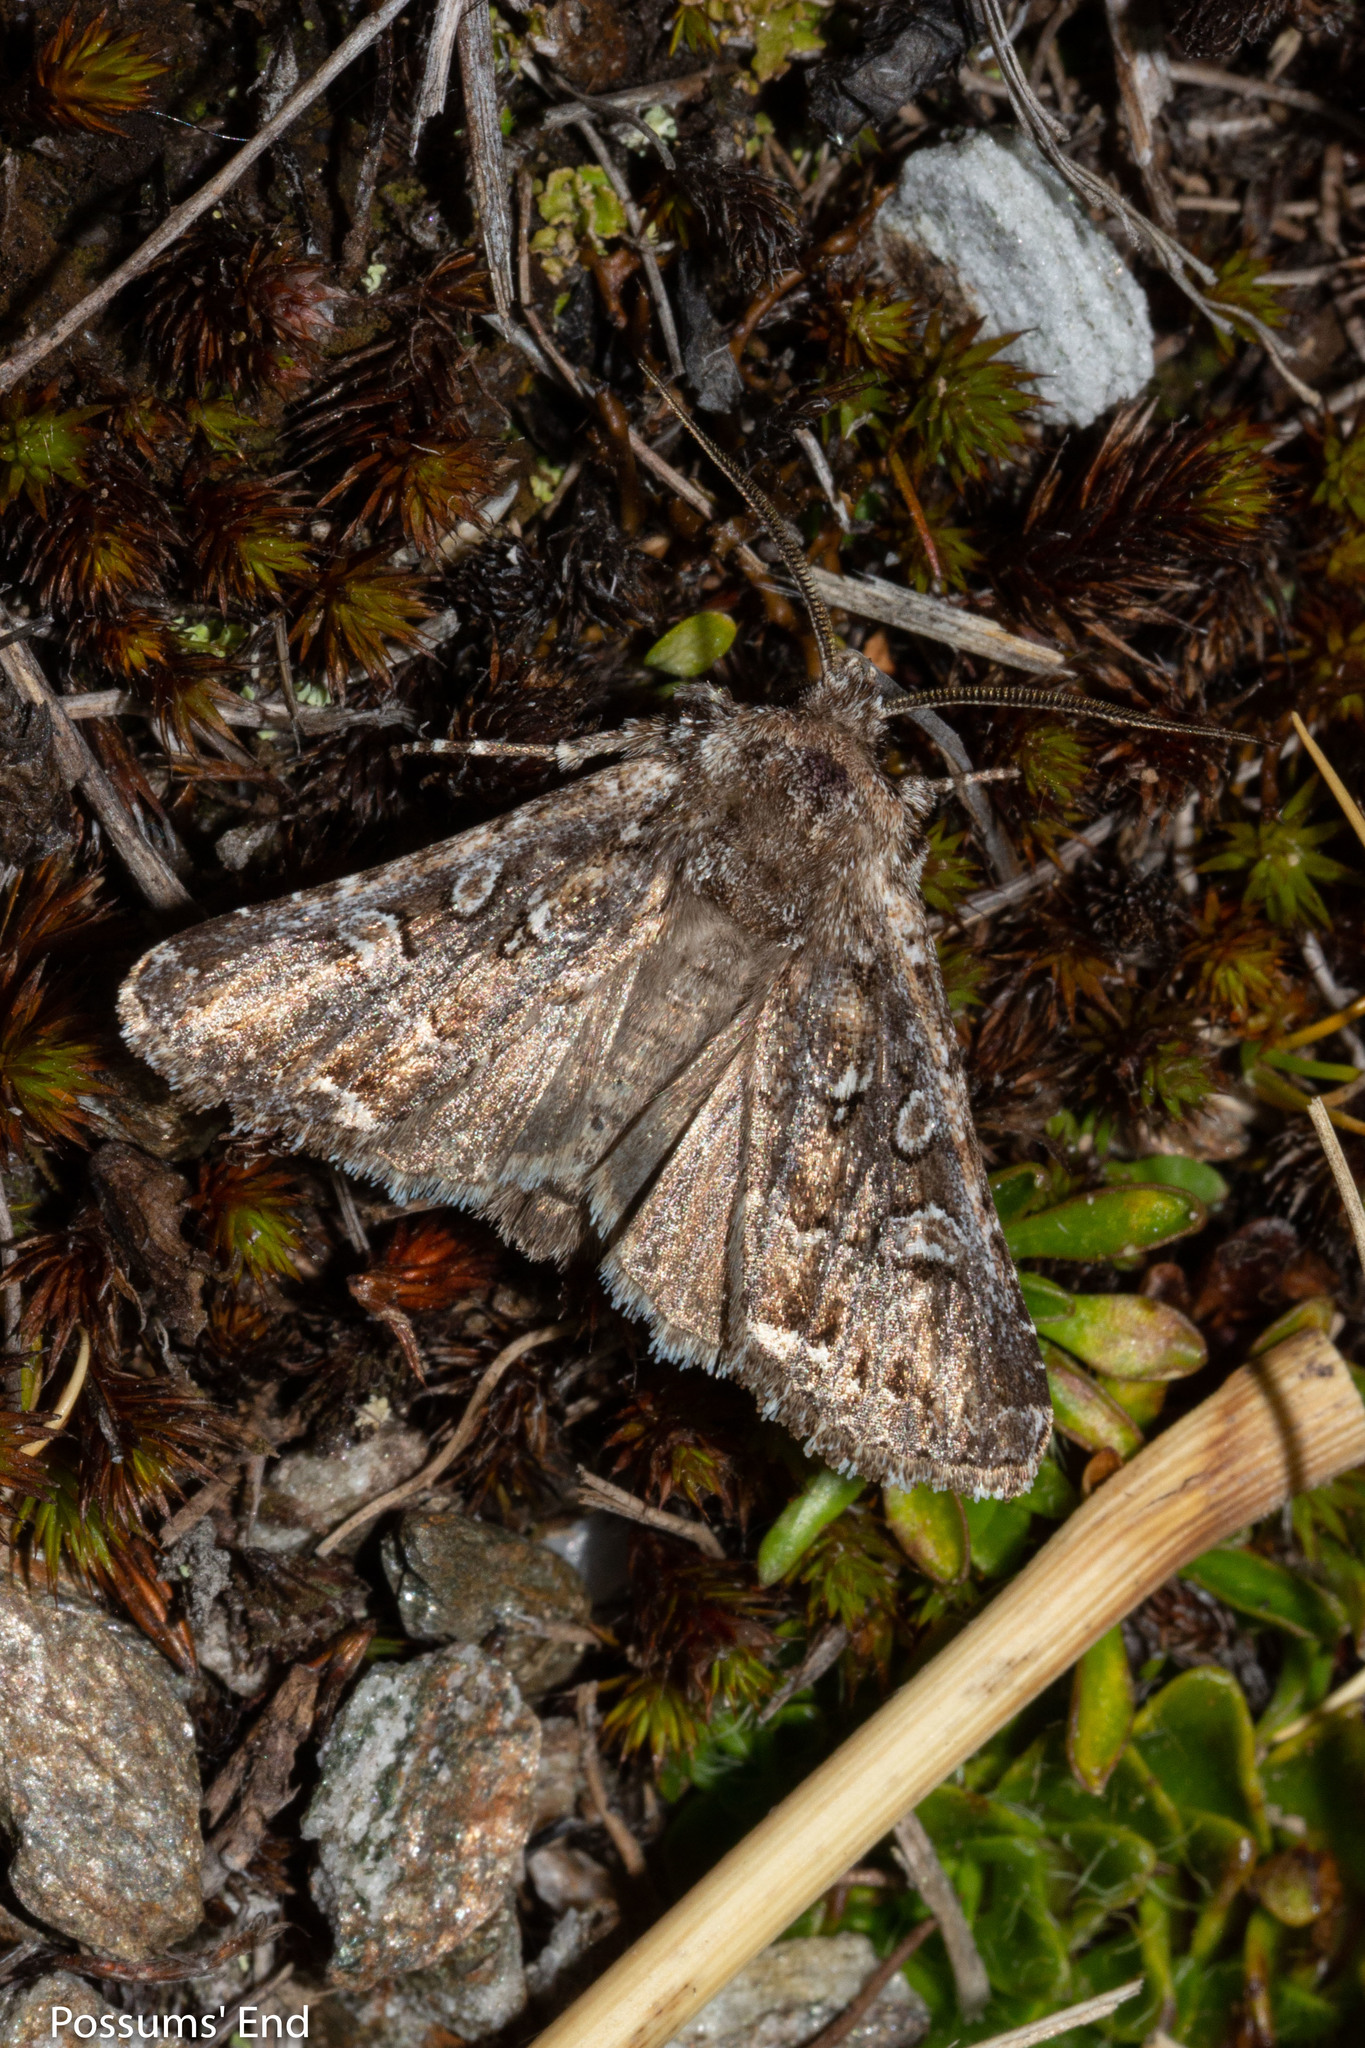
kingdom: Animalia
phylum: Arthropoda
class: Insecta
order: Lepidoptera
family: Noctuidae
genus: Ichneutica
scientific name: Ichneutica lithias
